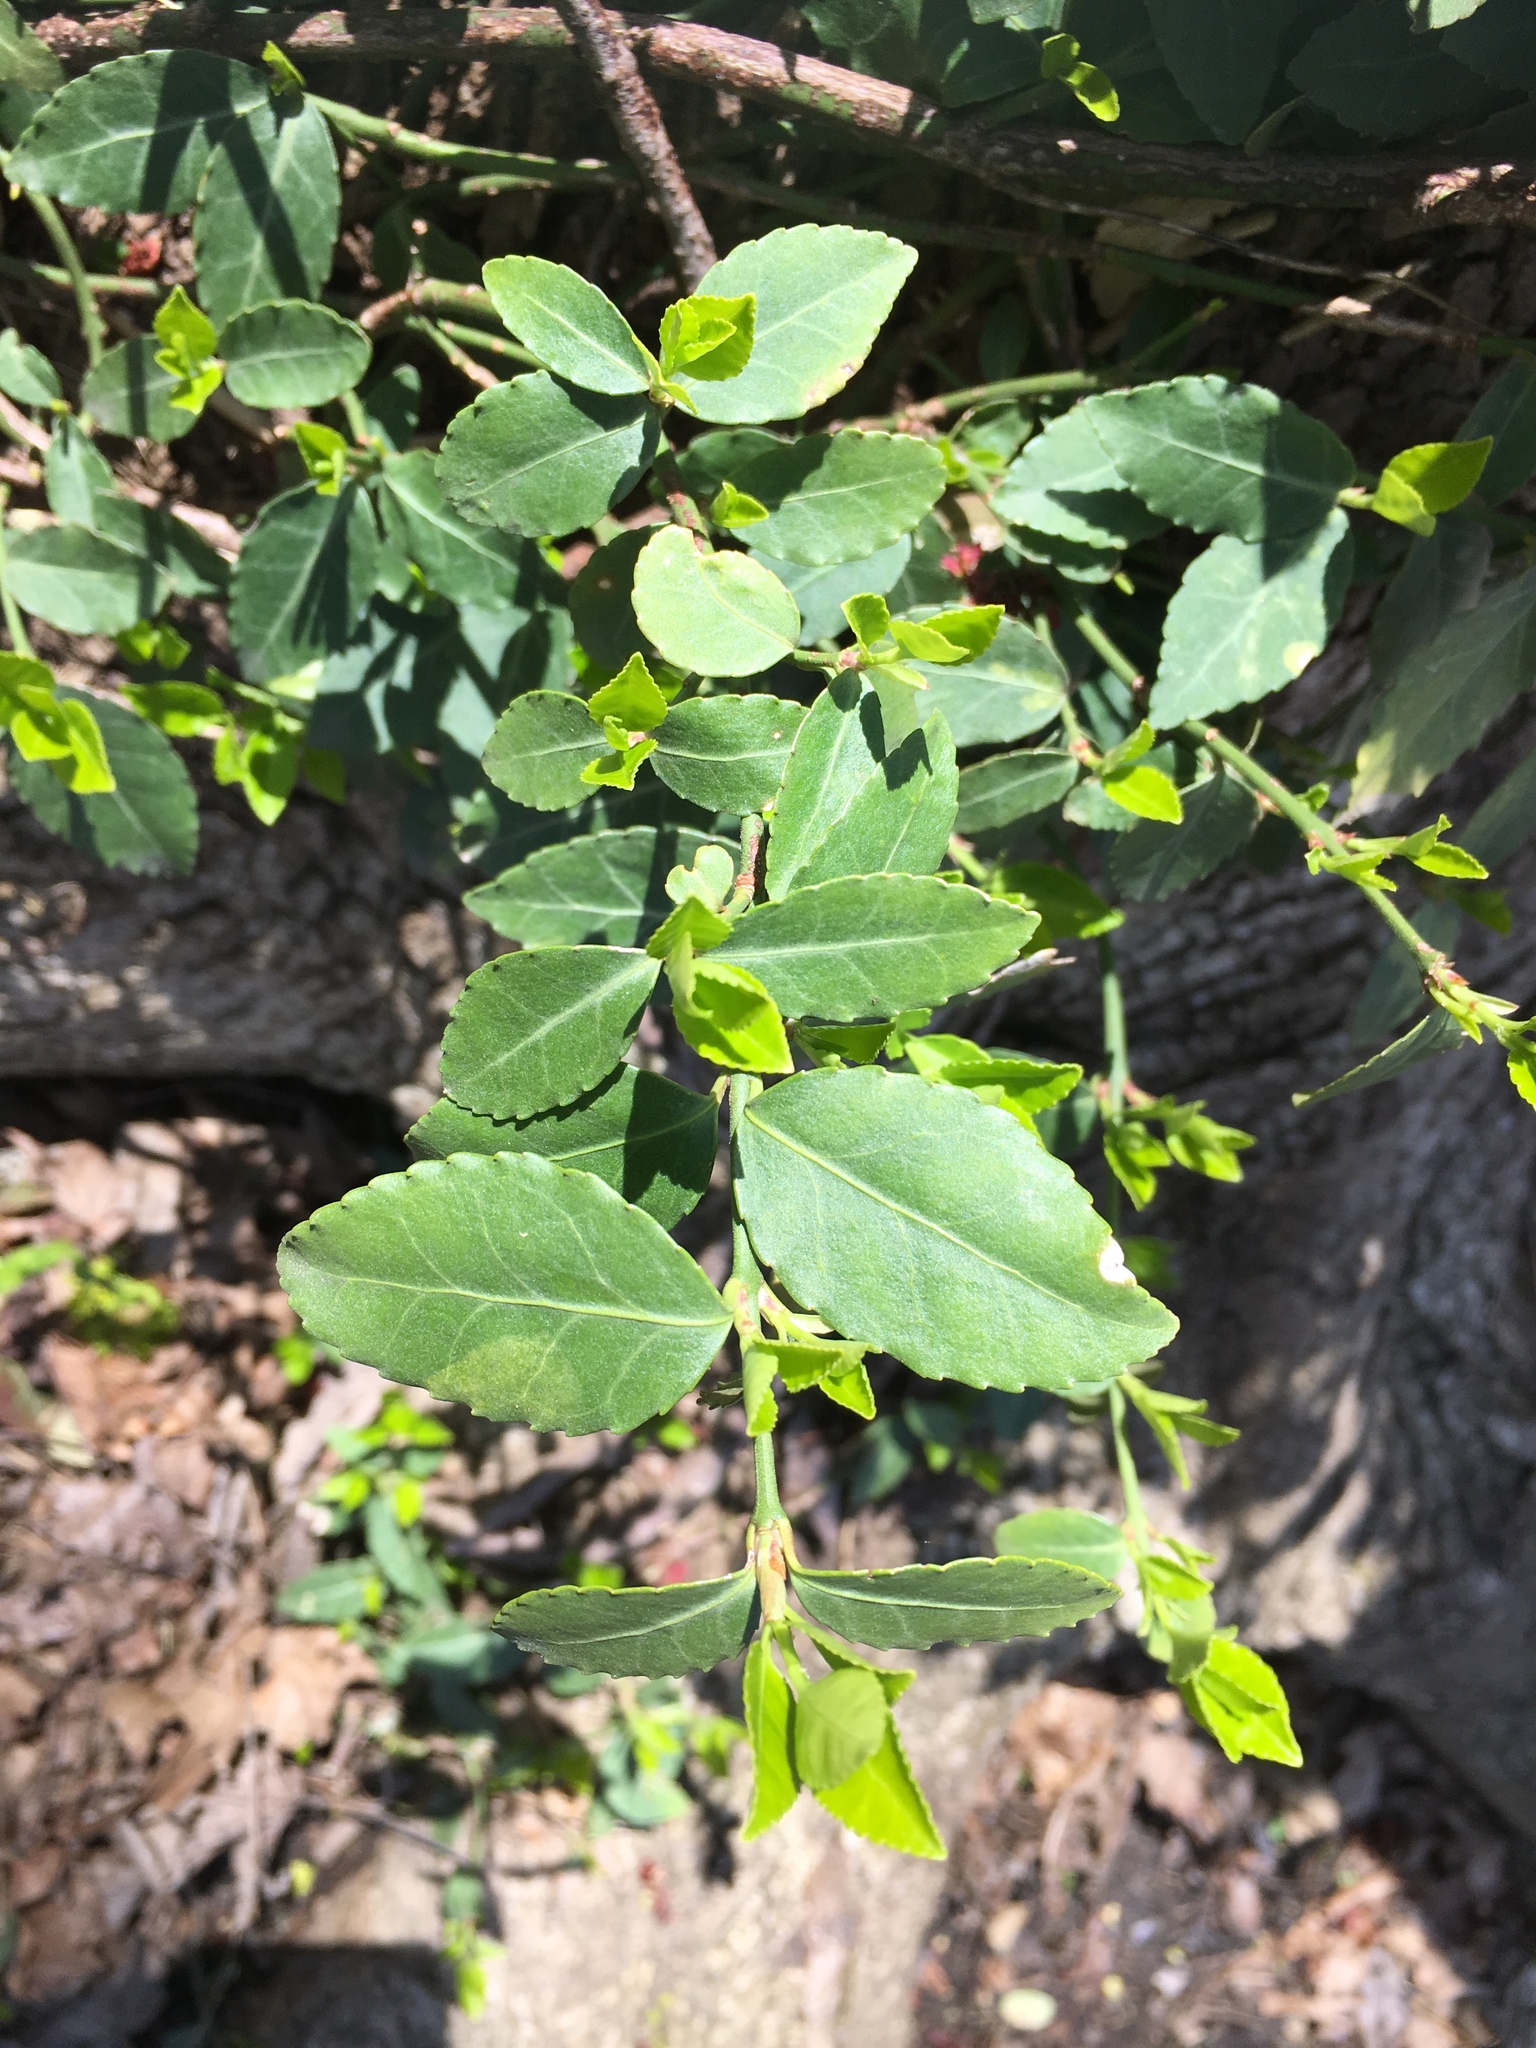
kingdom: Plantae
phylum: Tracheophyta
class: Magnoliopsida
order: Celastrales
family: Celastraceae
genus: Euonymus
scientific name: Euonymus fortunei
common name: Climbing euonymus
